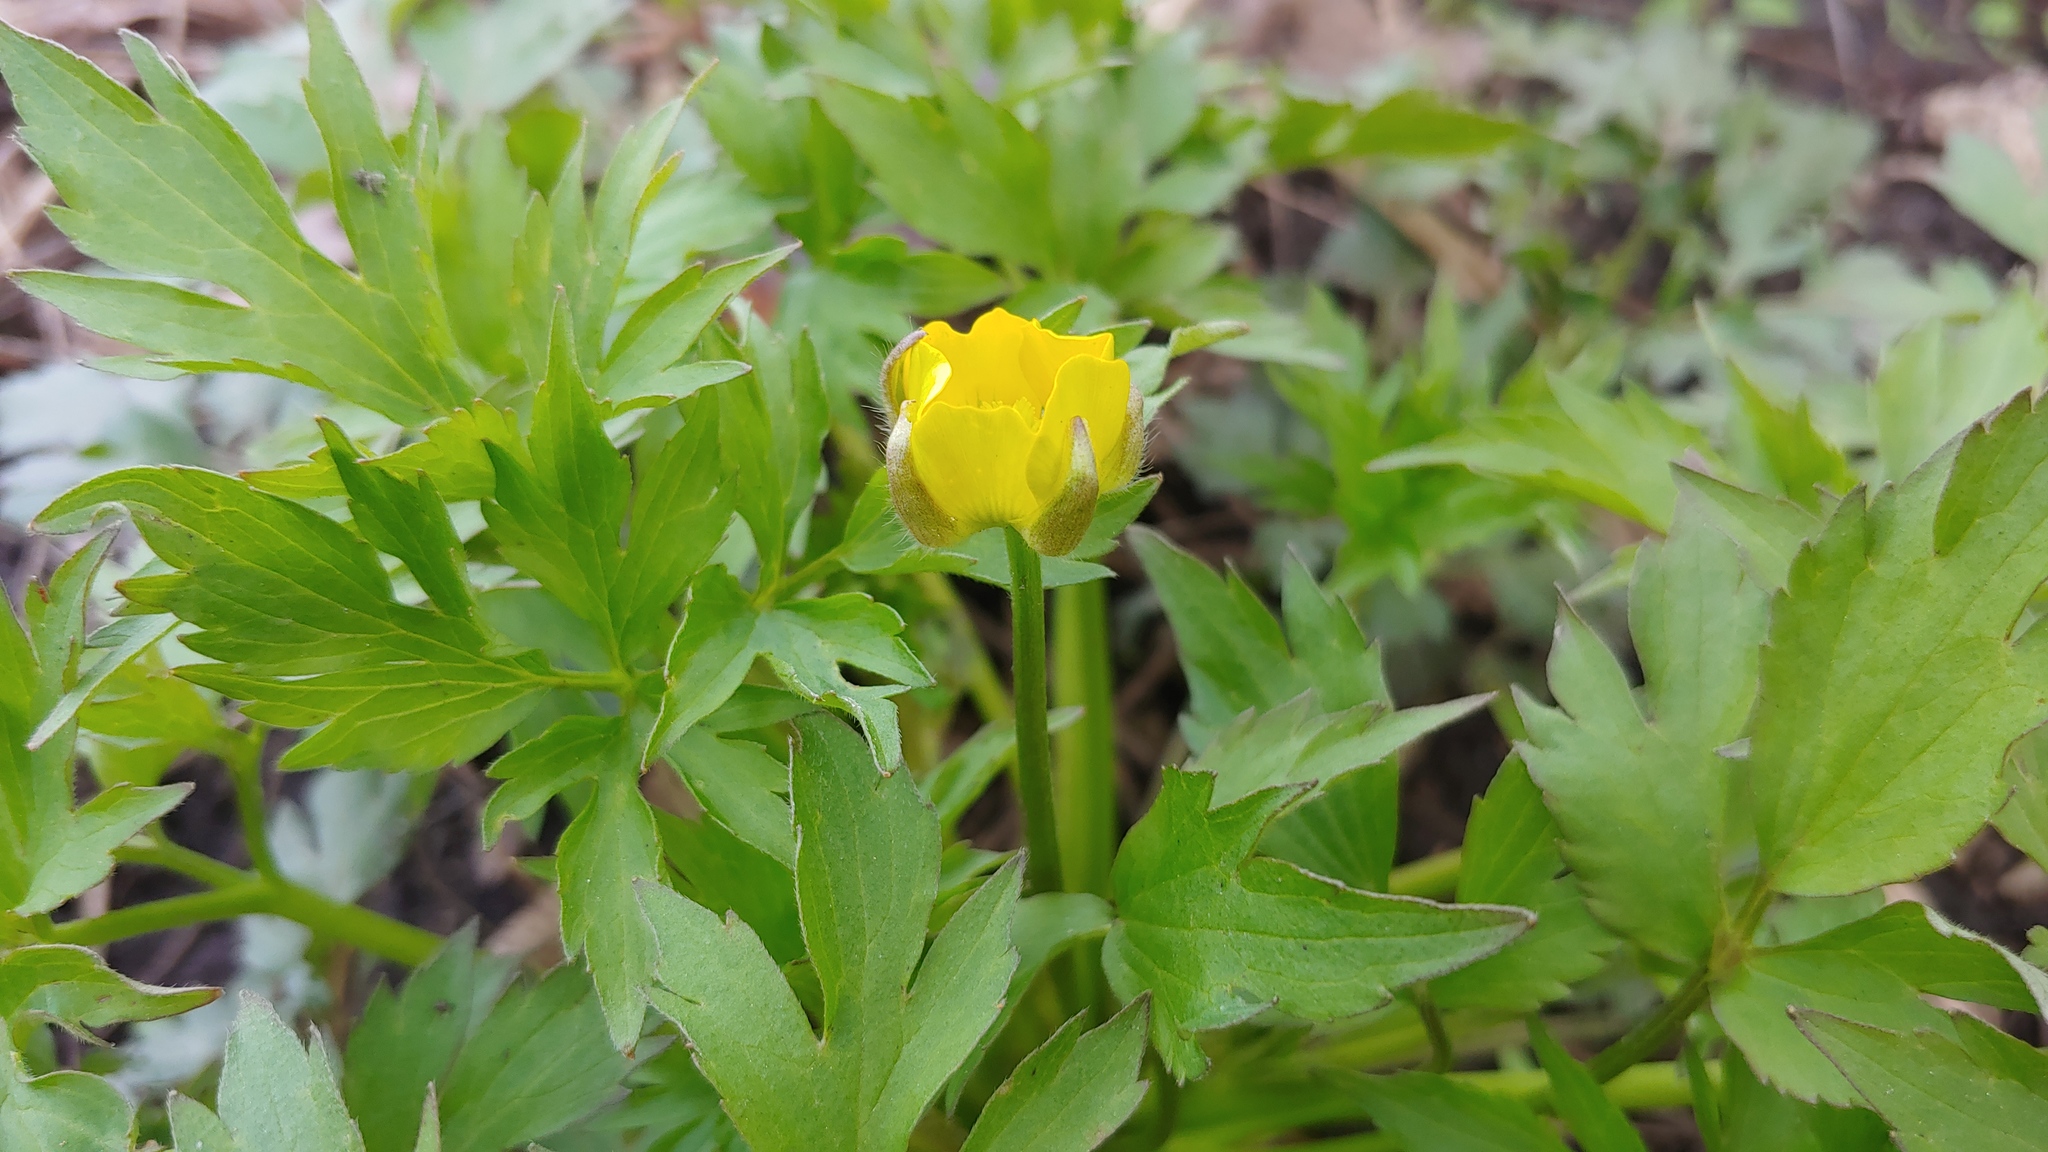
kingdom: Plantae
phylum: Tracheophyta
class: Magnoliopsida
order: Ranunculales
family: Ranunculaceae
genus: Ranunculus
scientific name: Ranunculus hispidus
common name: Bristly buttercup
